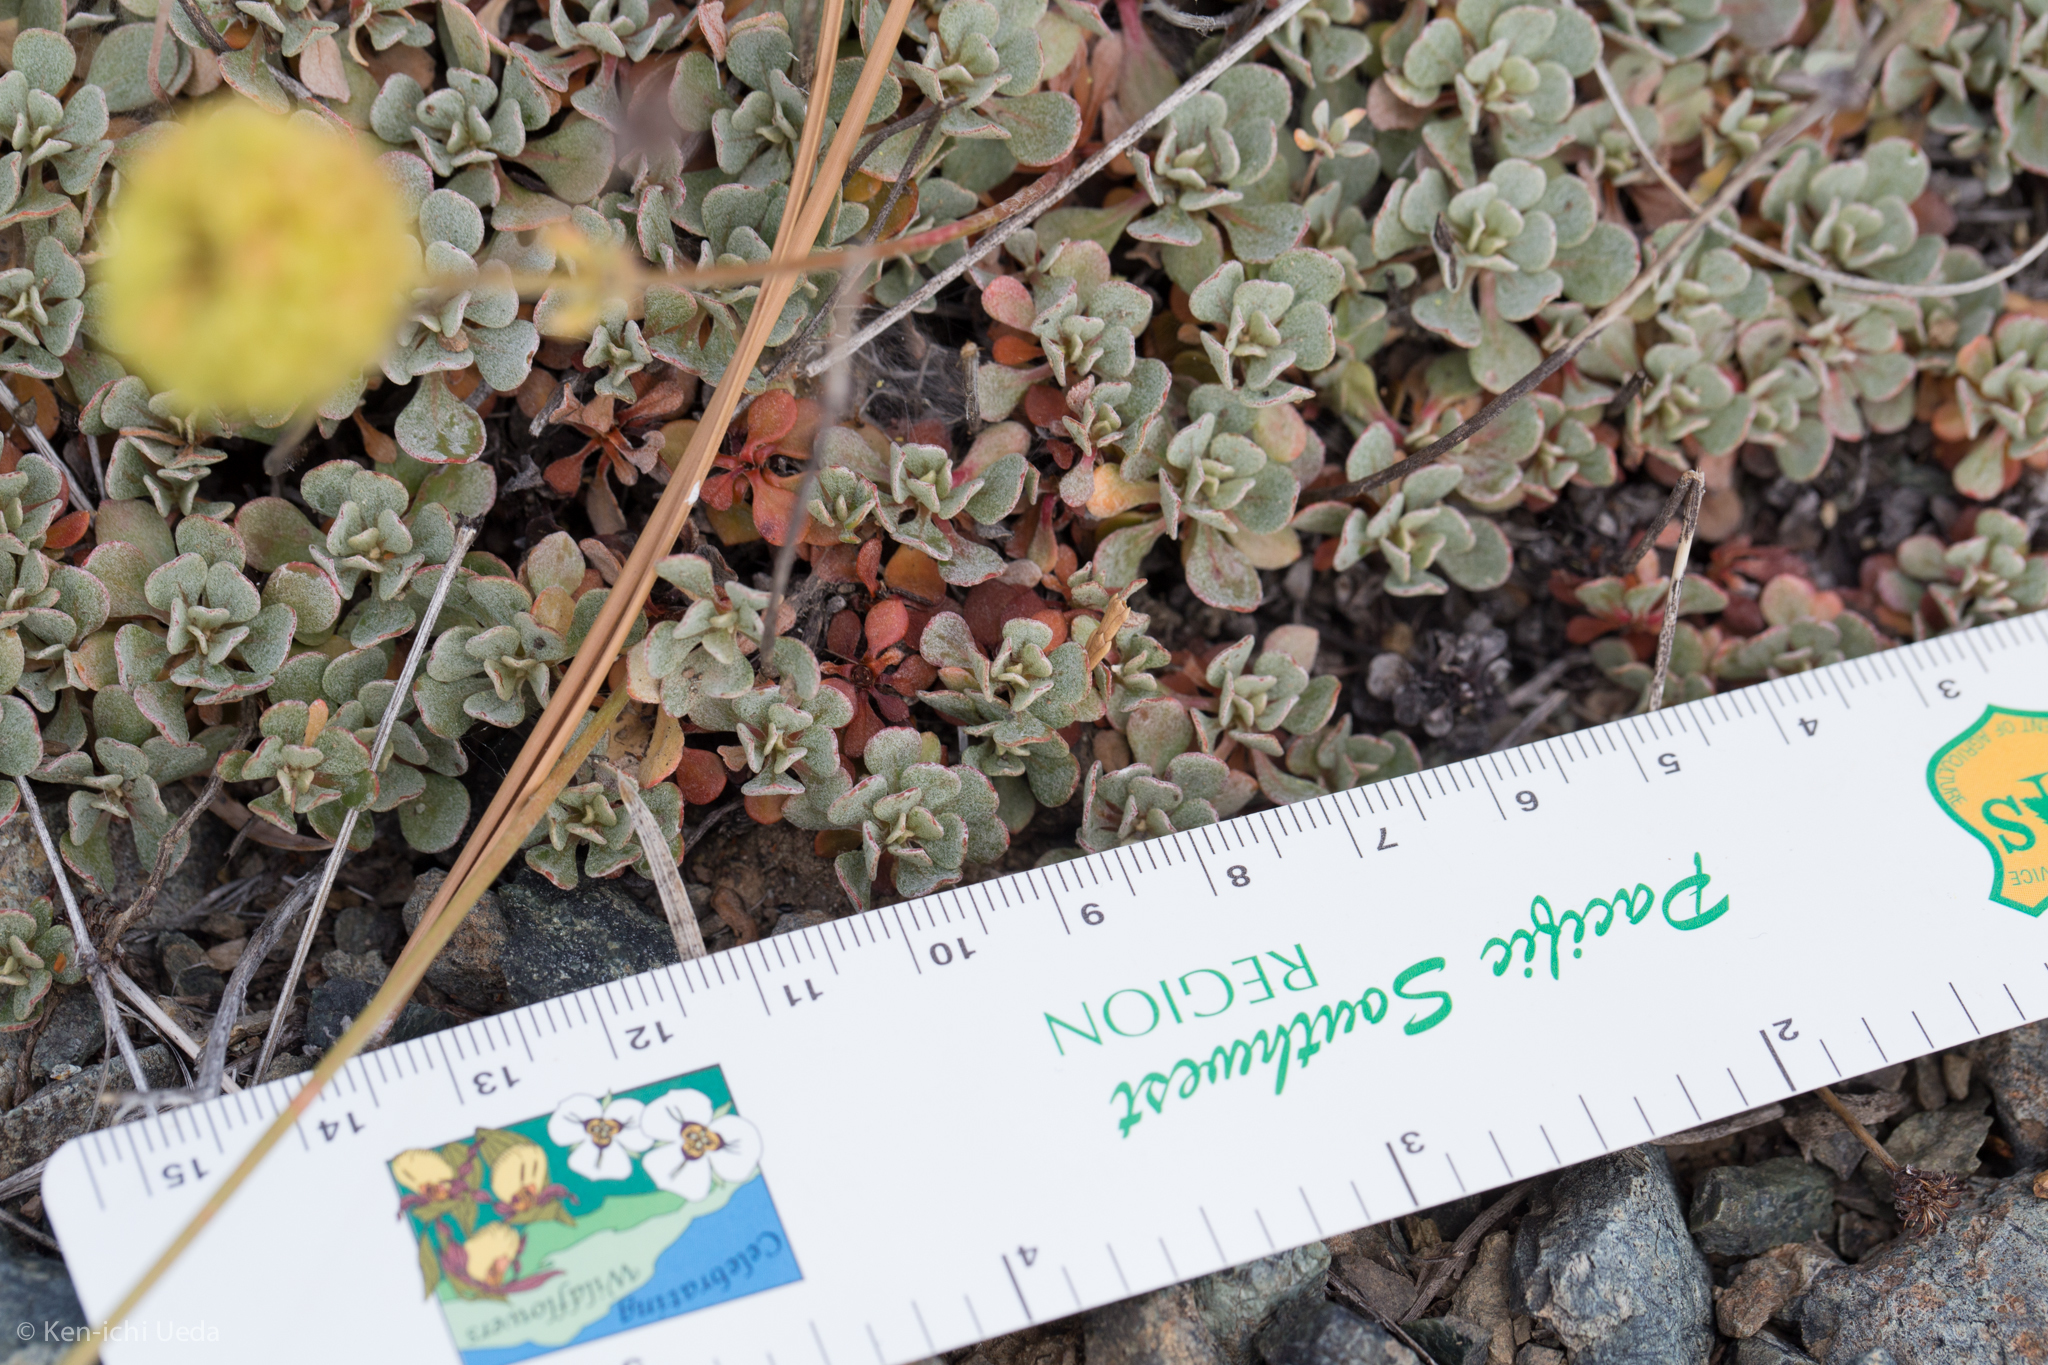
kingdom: Plantae
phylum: Tracheophyta
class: Magnoliopsida
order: Caryophyllales
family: Polygonaceae
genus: Eriogonum
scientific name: Eriogonum siskiyouense
